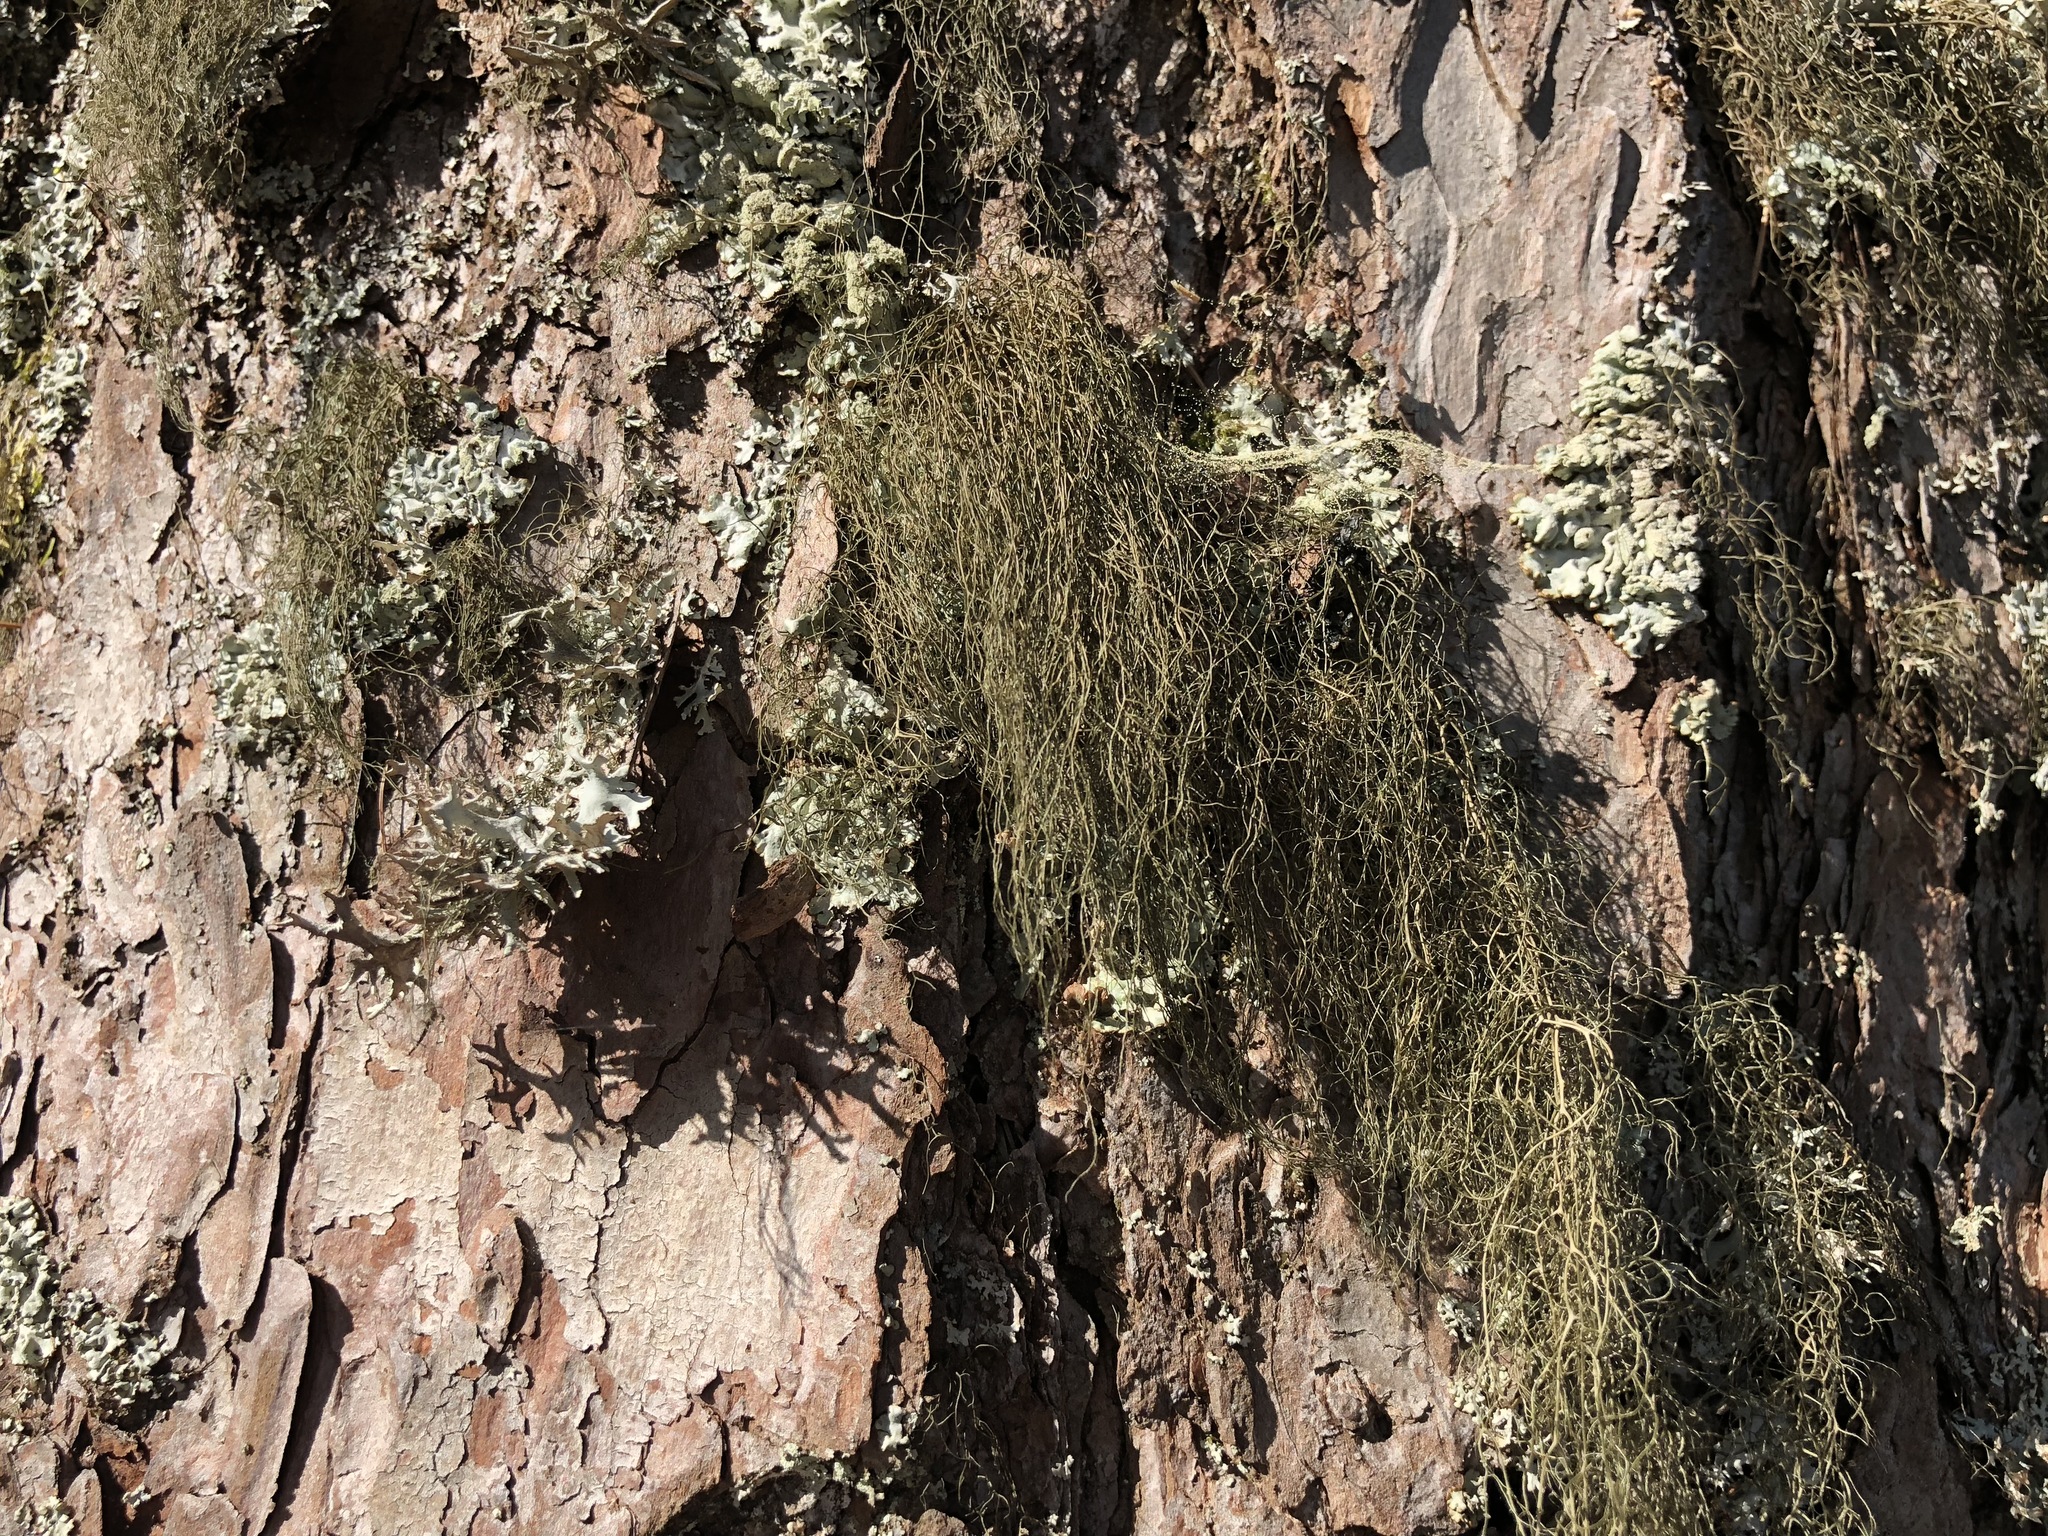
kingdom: Fungi
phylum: Ascomycota
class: Lecanoromycetes
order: Lecanorales
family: Parmeliaceae
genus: Bryoria
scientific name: Bryoria fuscescens
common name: Pale-footed horsehair lichen
